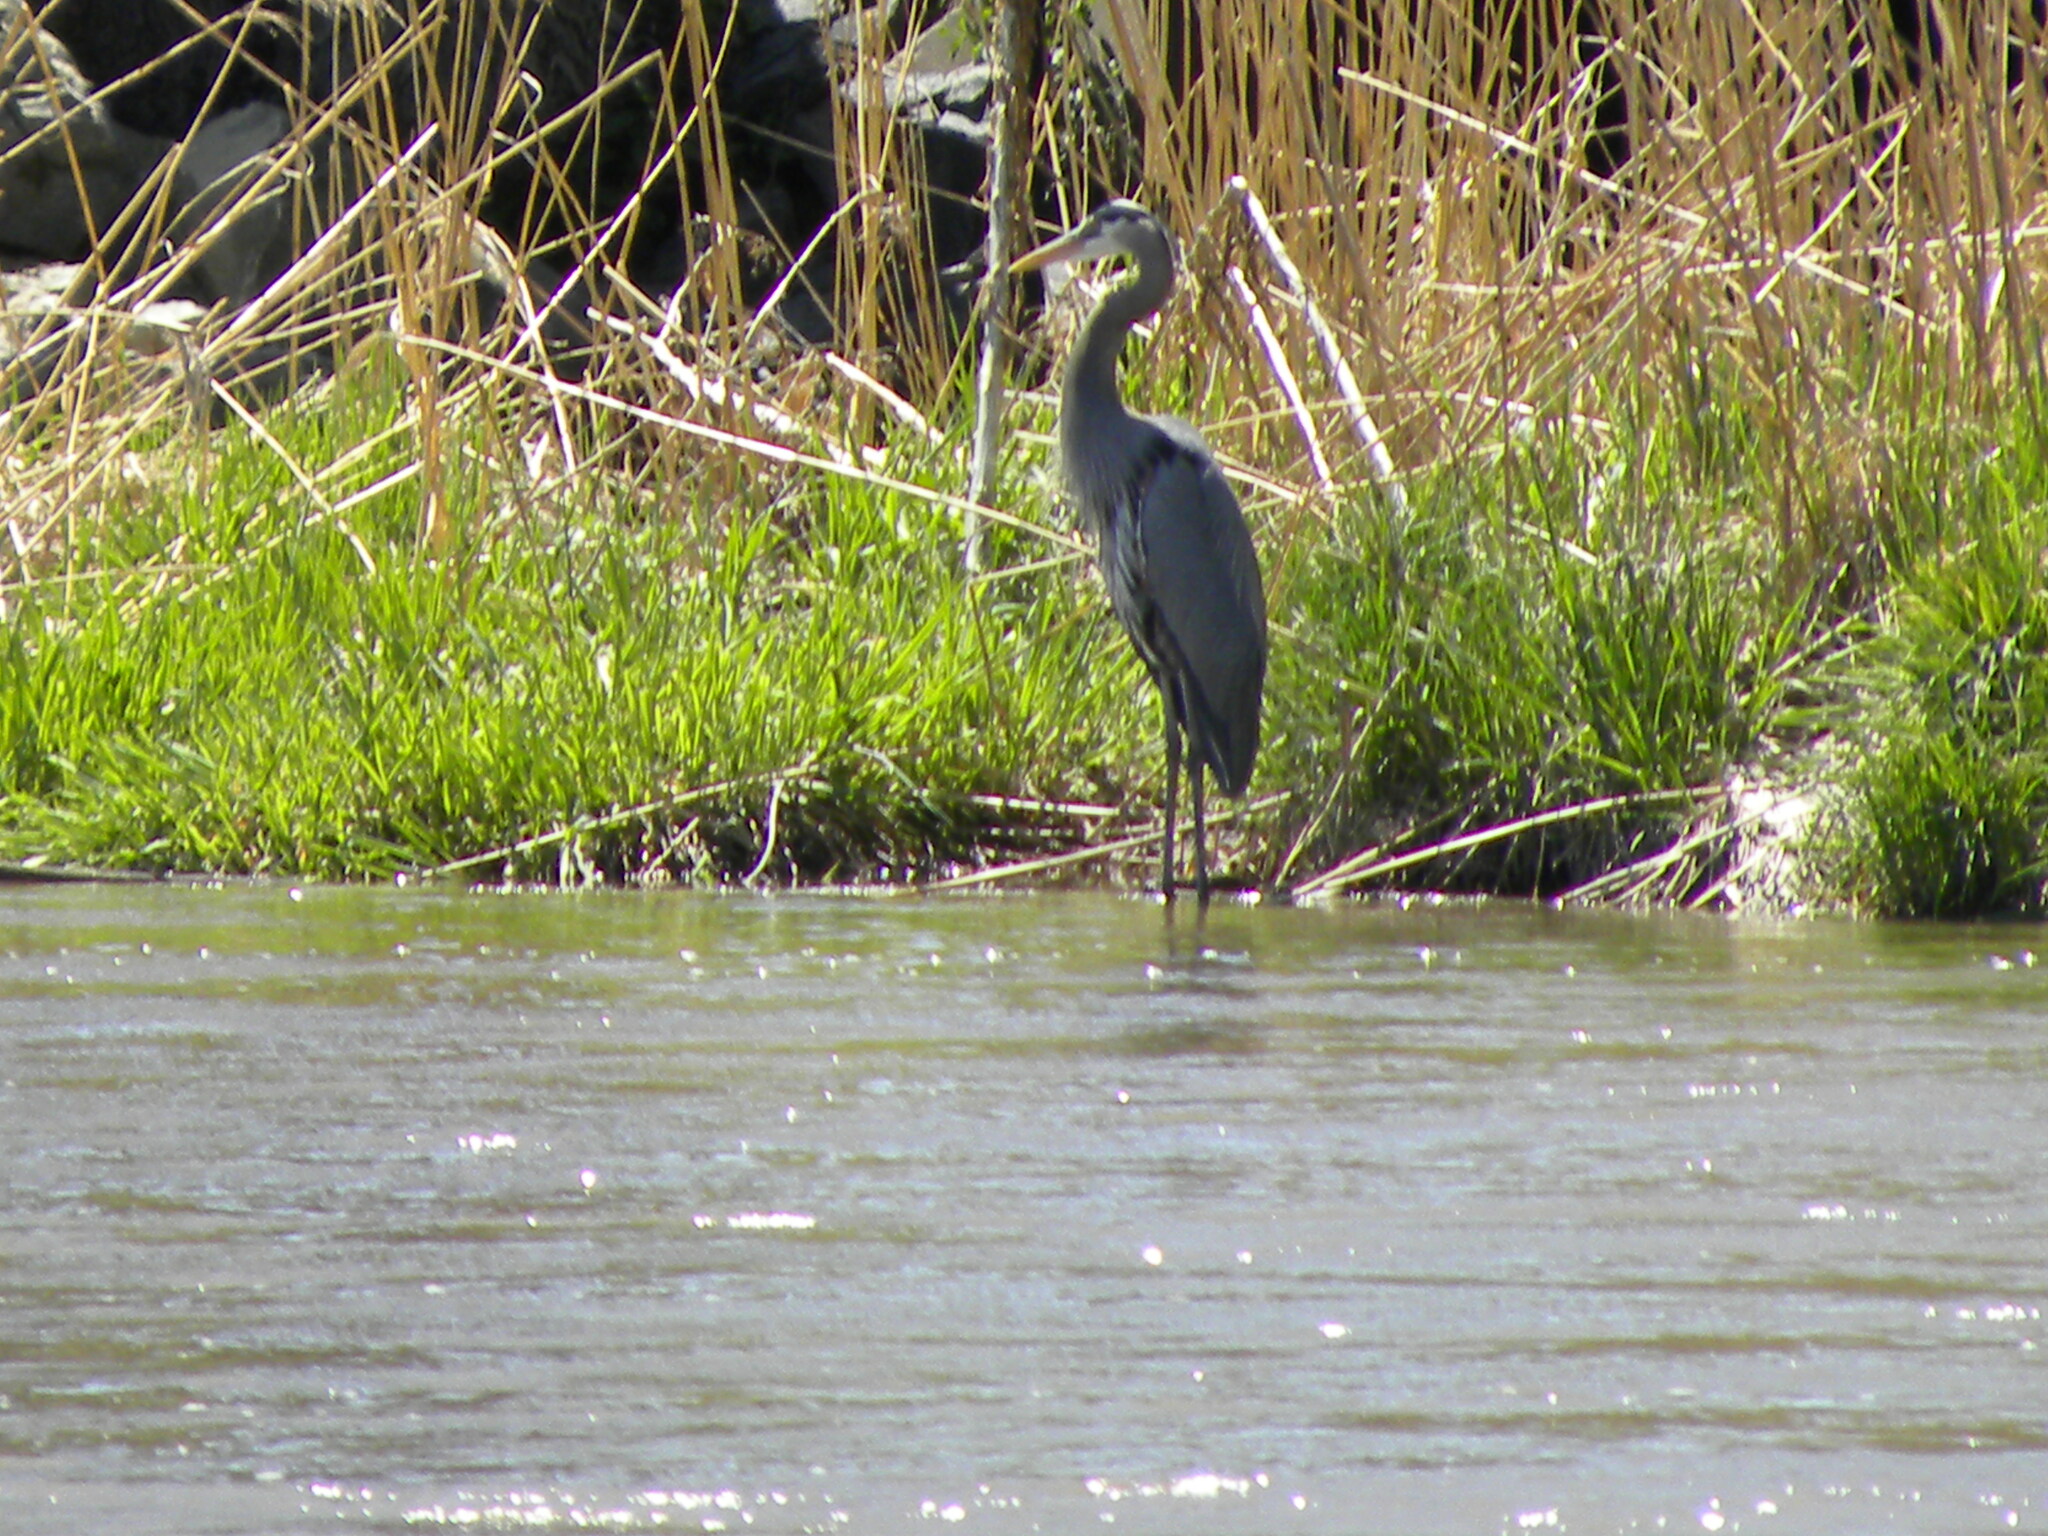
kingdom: Animalia
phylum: Chordata
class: Aves
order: Pelecaniformes
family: Ardeidae
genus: Ardea
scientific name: Ardea herodias
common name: Great blue heron
